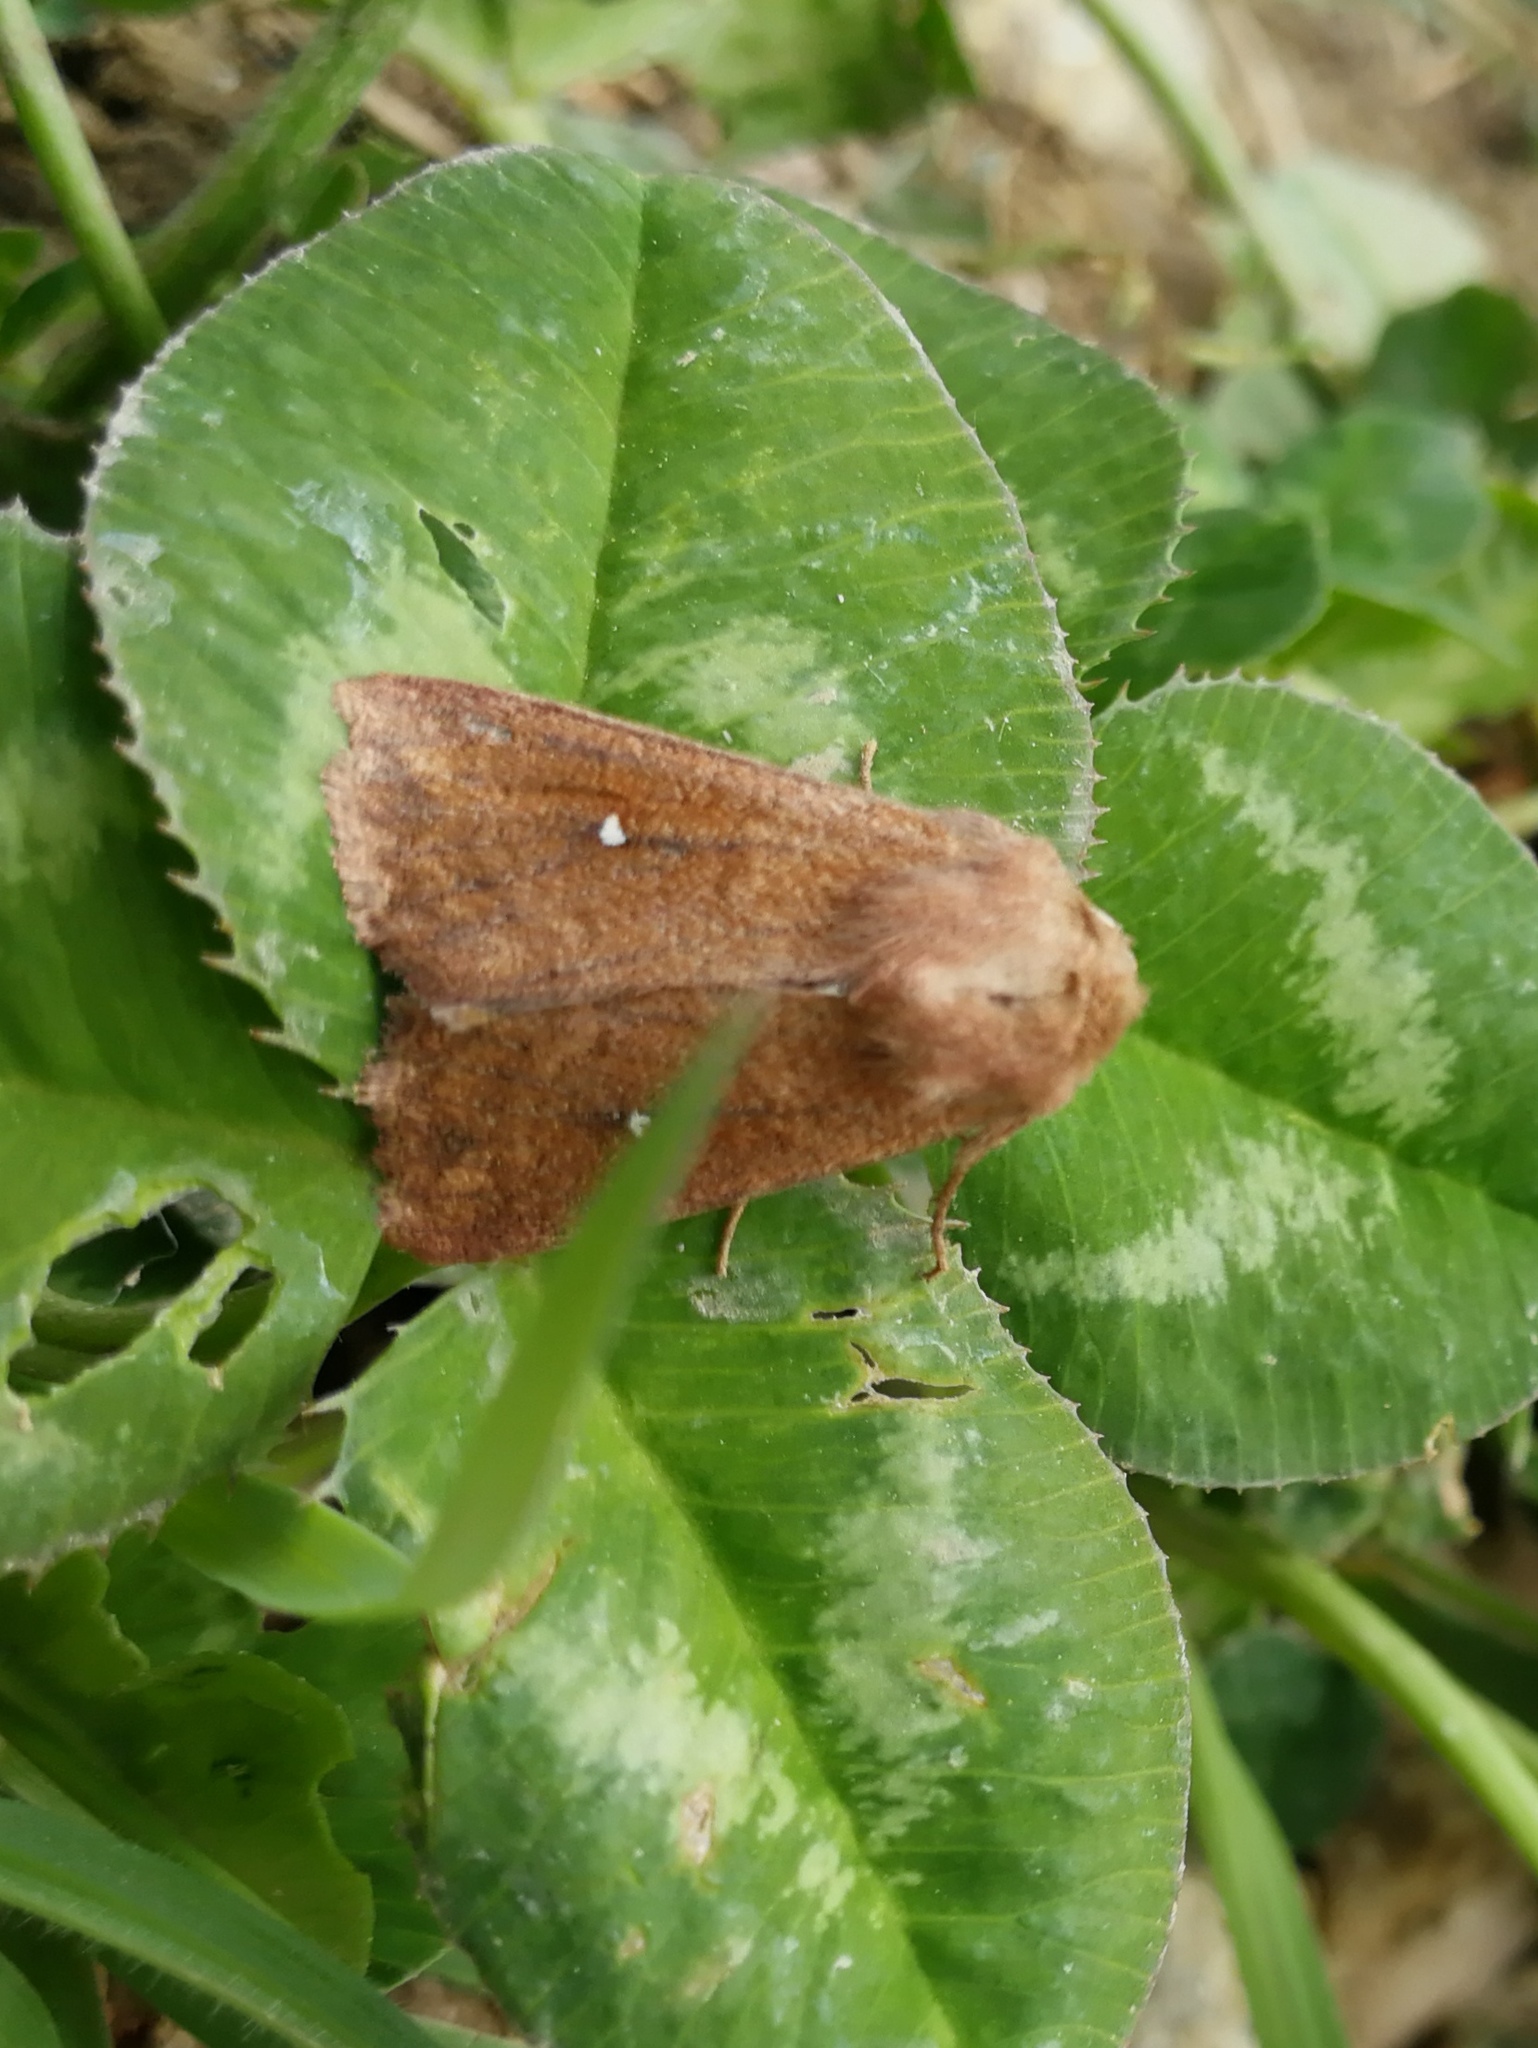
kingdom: Animalia
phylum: Arthropoda
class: Insecta
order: Lepidoptera
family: Noctuidae
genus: Mythimna
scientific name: Mythimna albipuncta
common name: White-point
